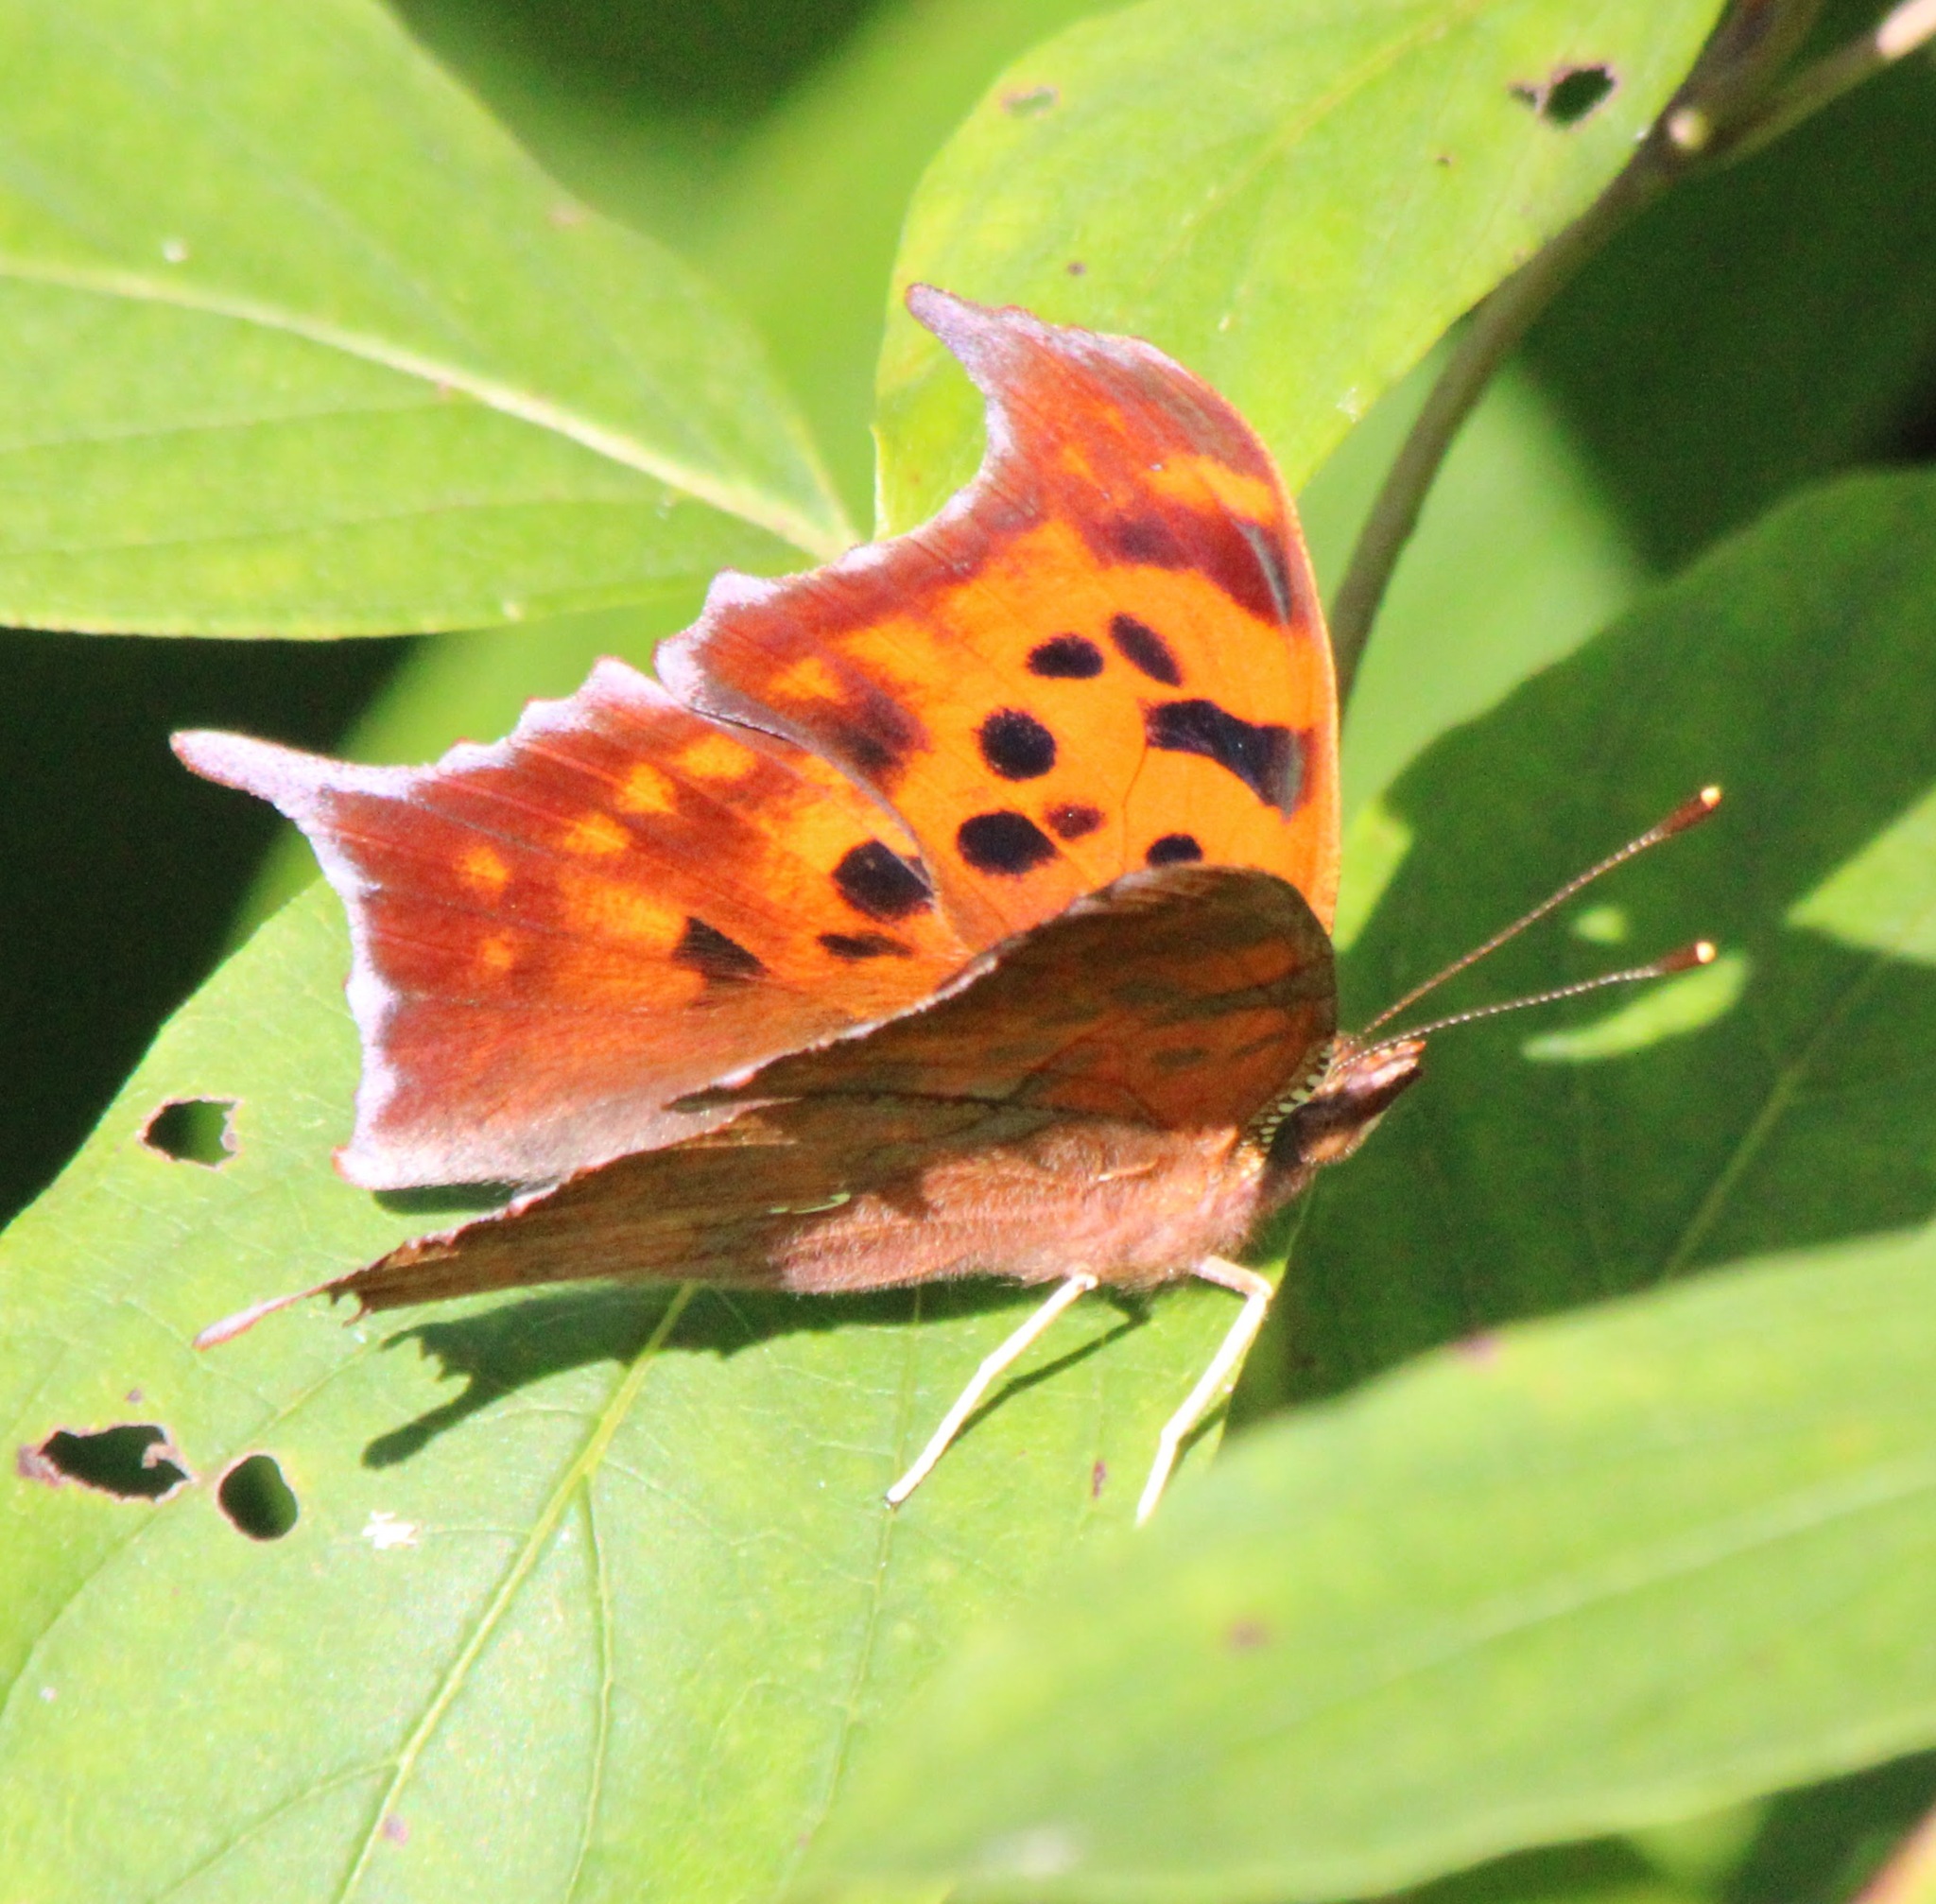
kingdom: Animalia
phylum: Arthropoda
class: Insecta
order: Lepidoptera
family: Nymphalidae
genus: Polygonia
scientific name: Polygonia interrogationis
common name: Question mark
